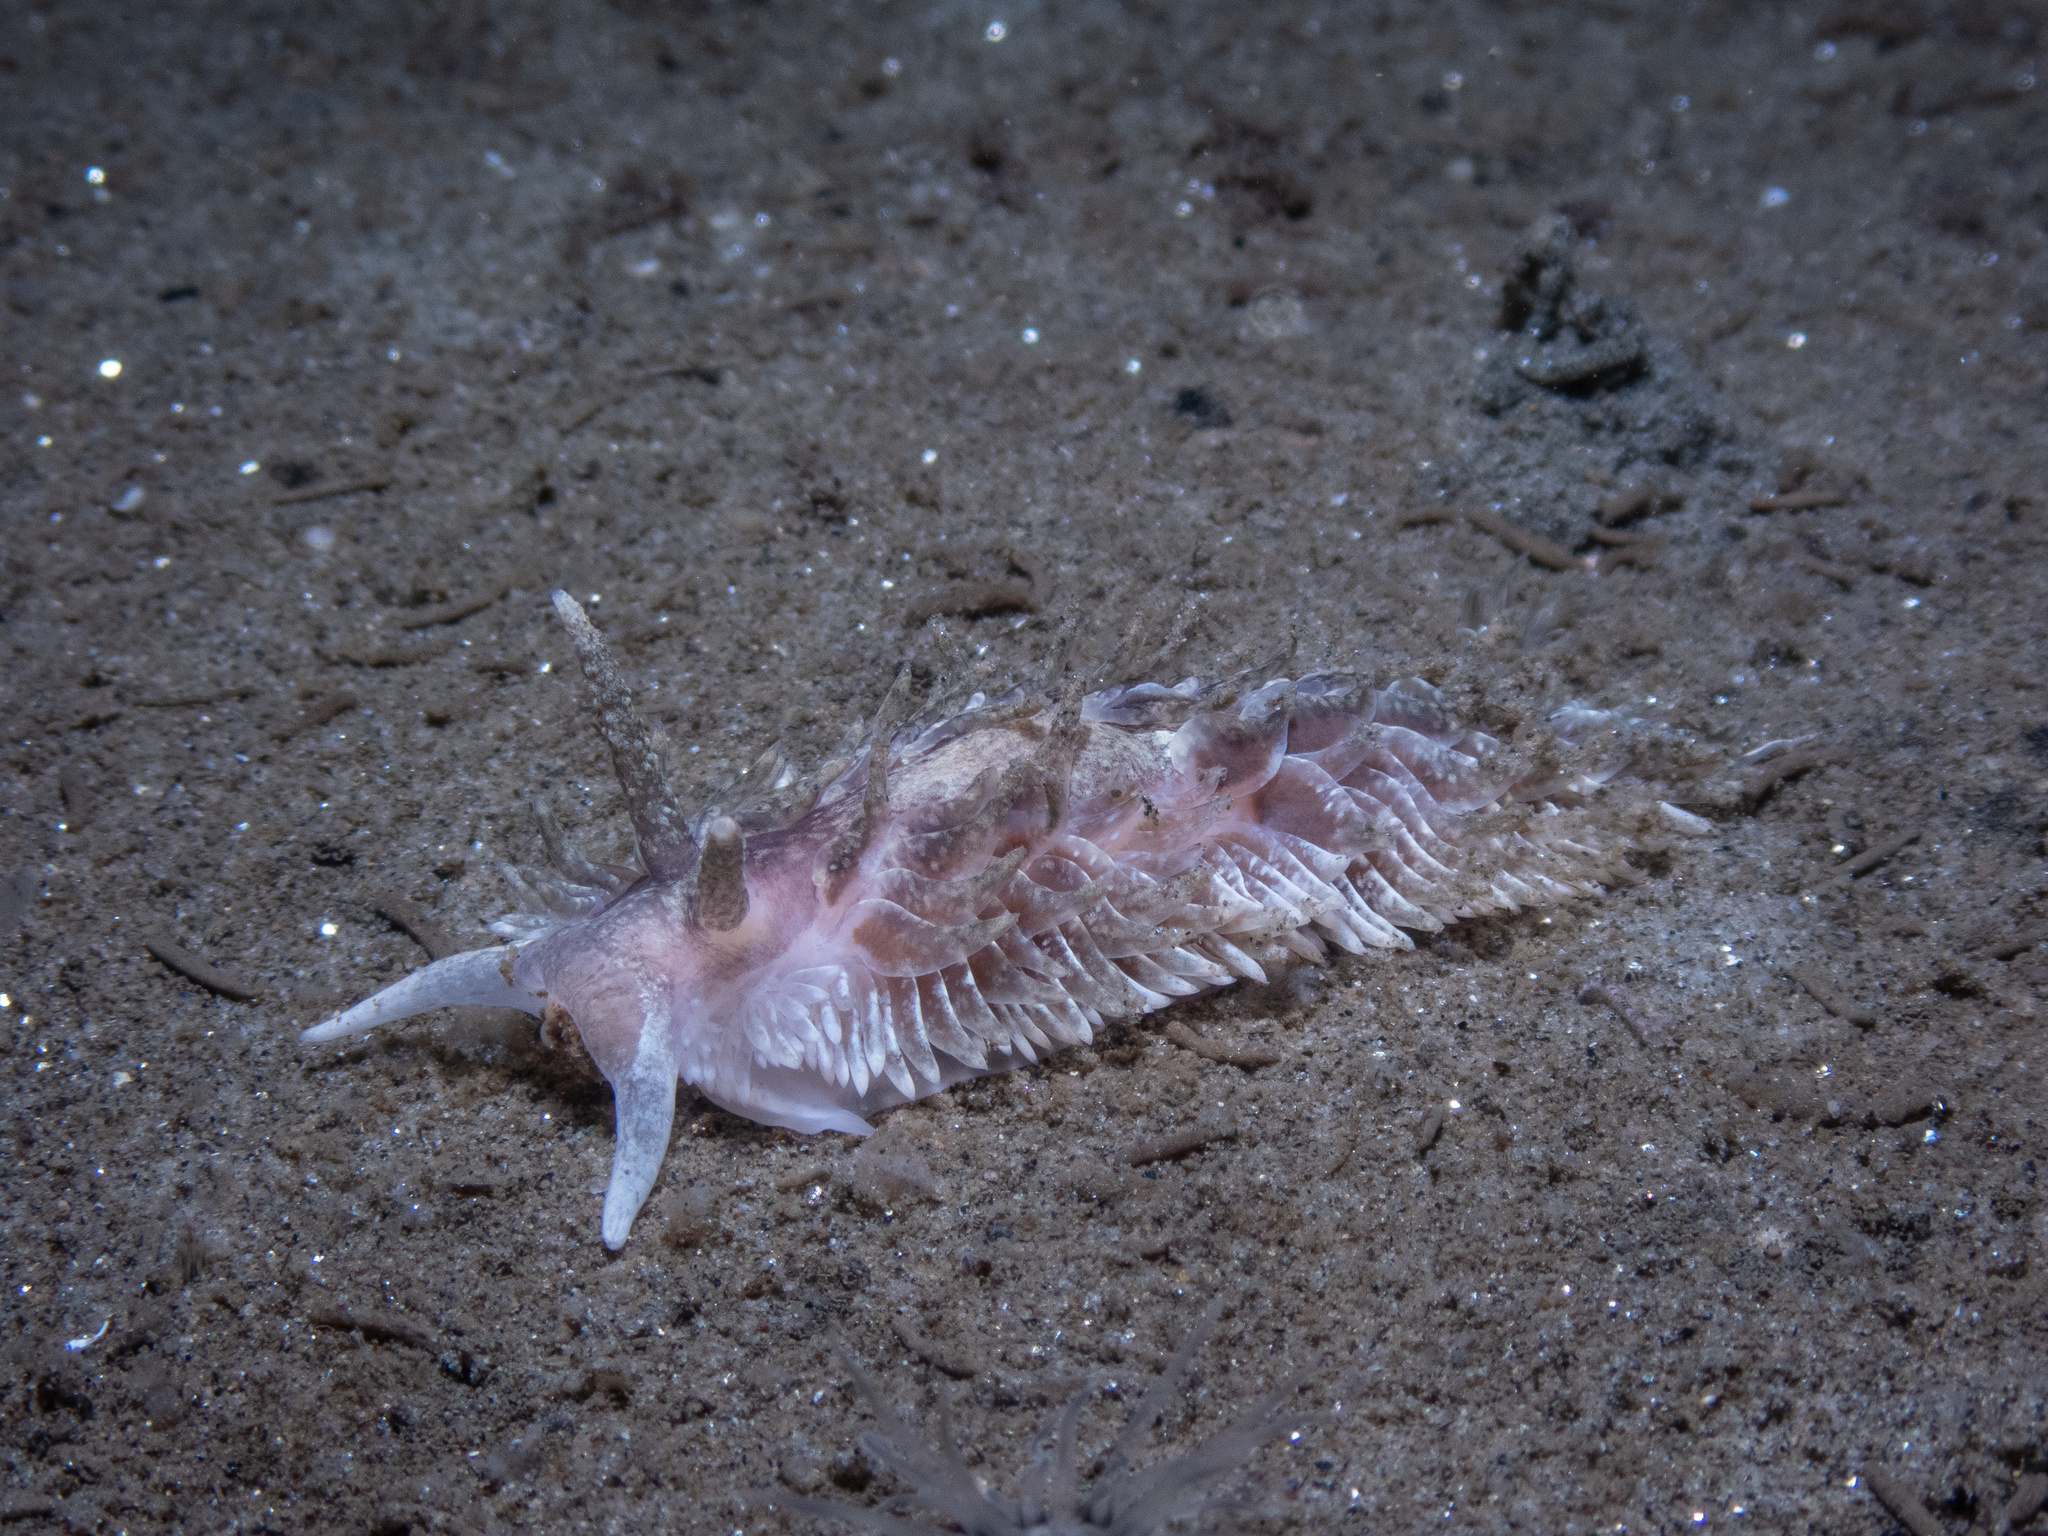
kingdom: Animalia
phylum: Mollusca
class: Gastropoda
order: Nudibranchia
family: Aeolidiidae
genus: Aeolidia
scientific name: Aeolidia loui
